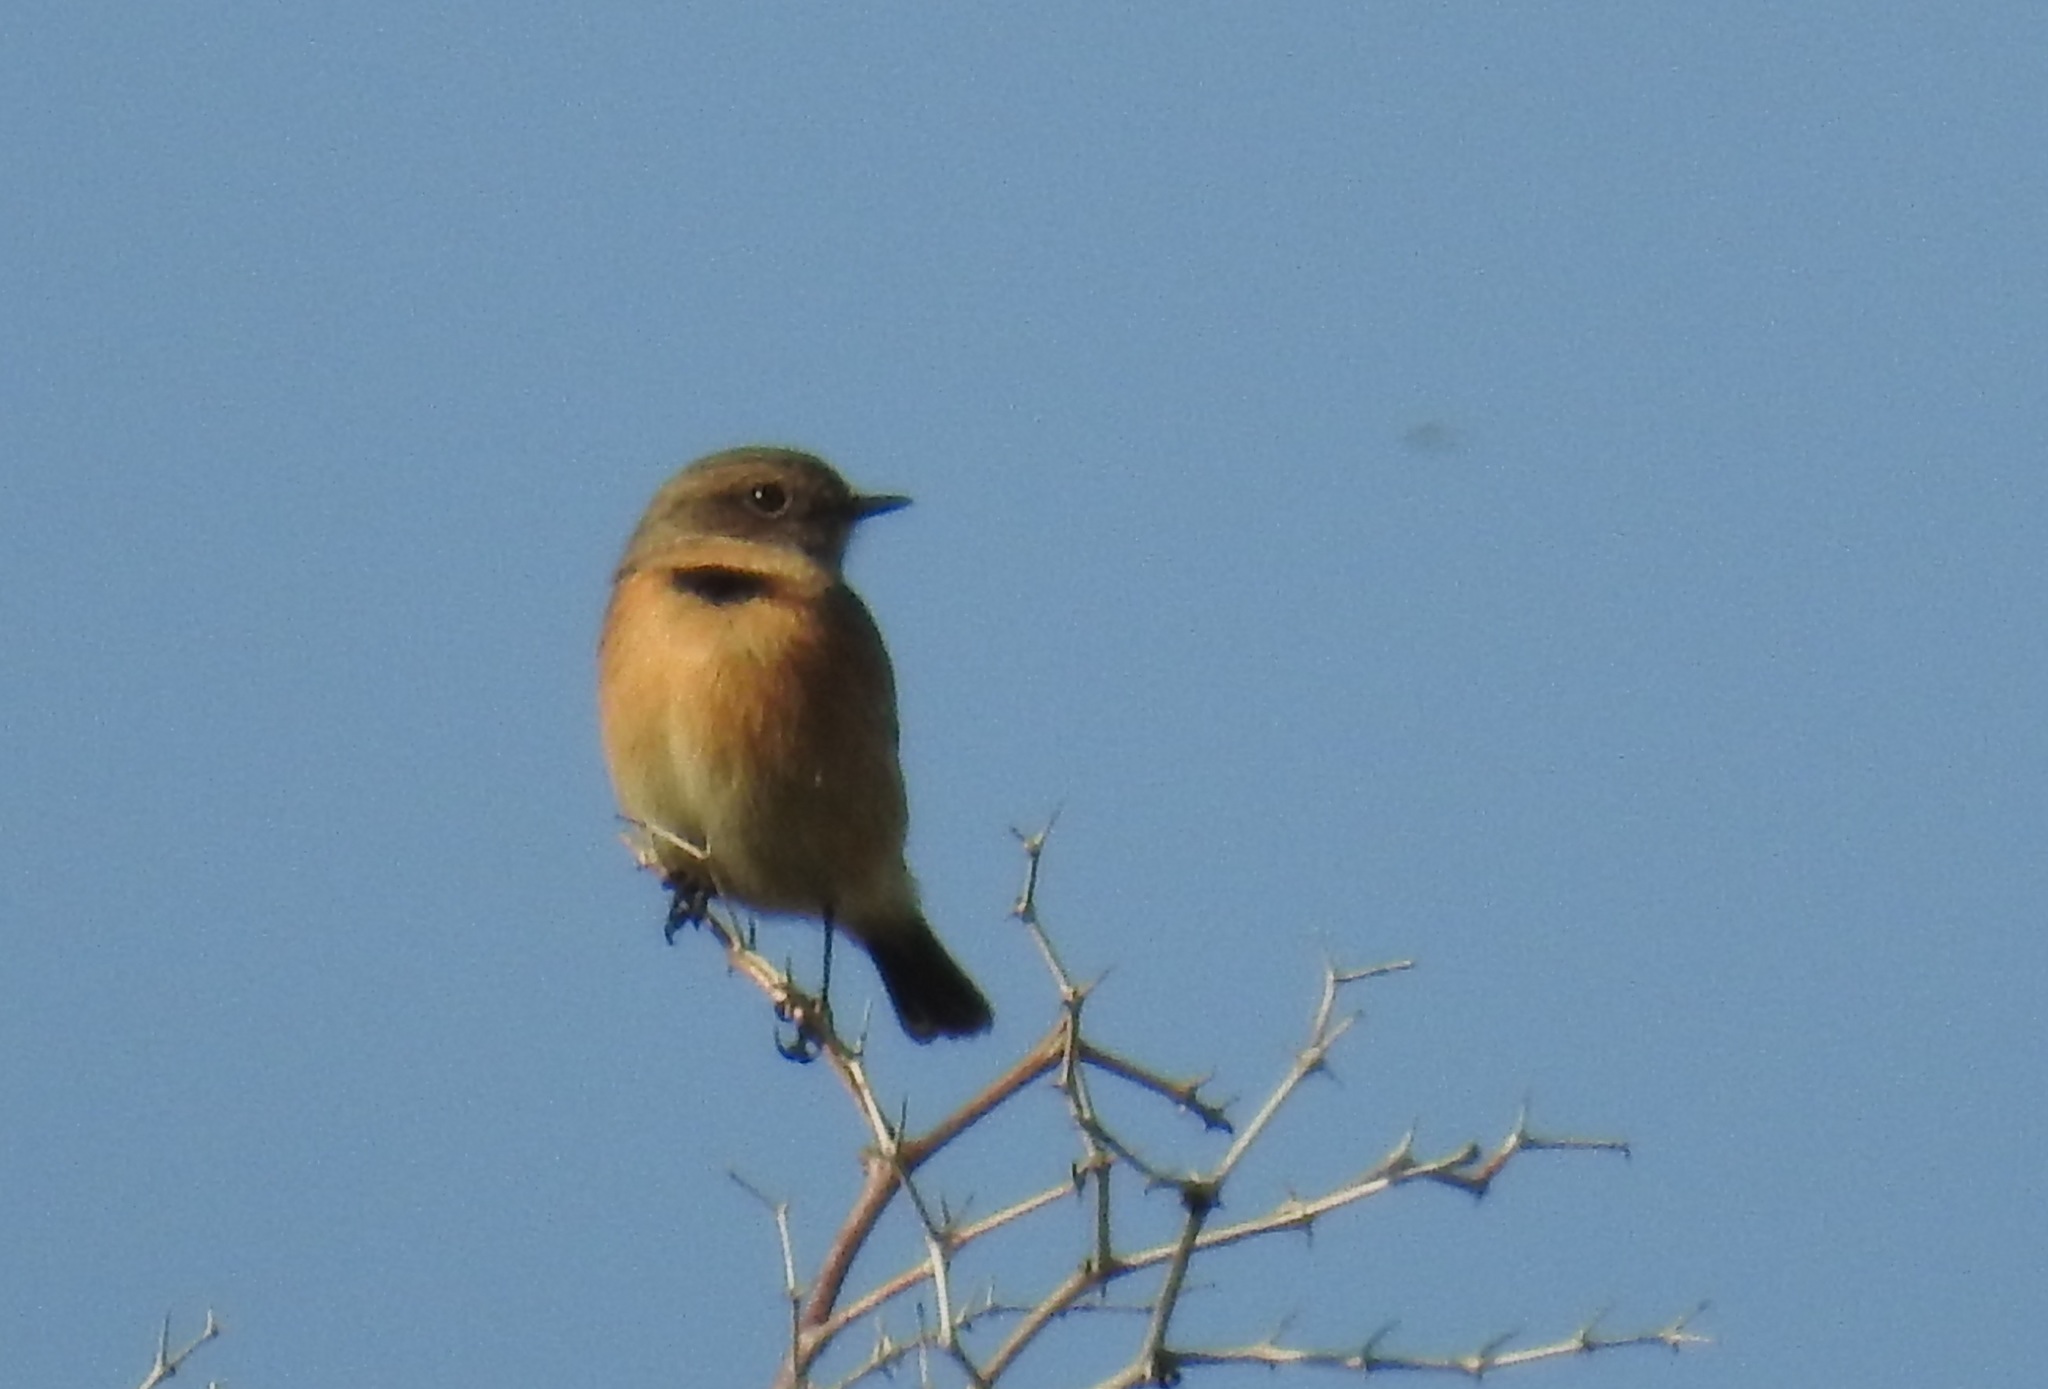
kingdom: Animalia
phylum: Chordata
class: Aves
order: Passeriformes
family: Muscicapidae
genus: Saxicola
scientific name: Saxicola rubicola
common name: European stonechat
